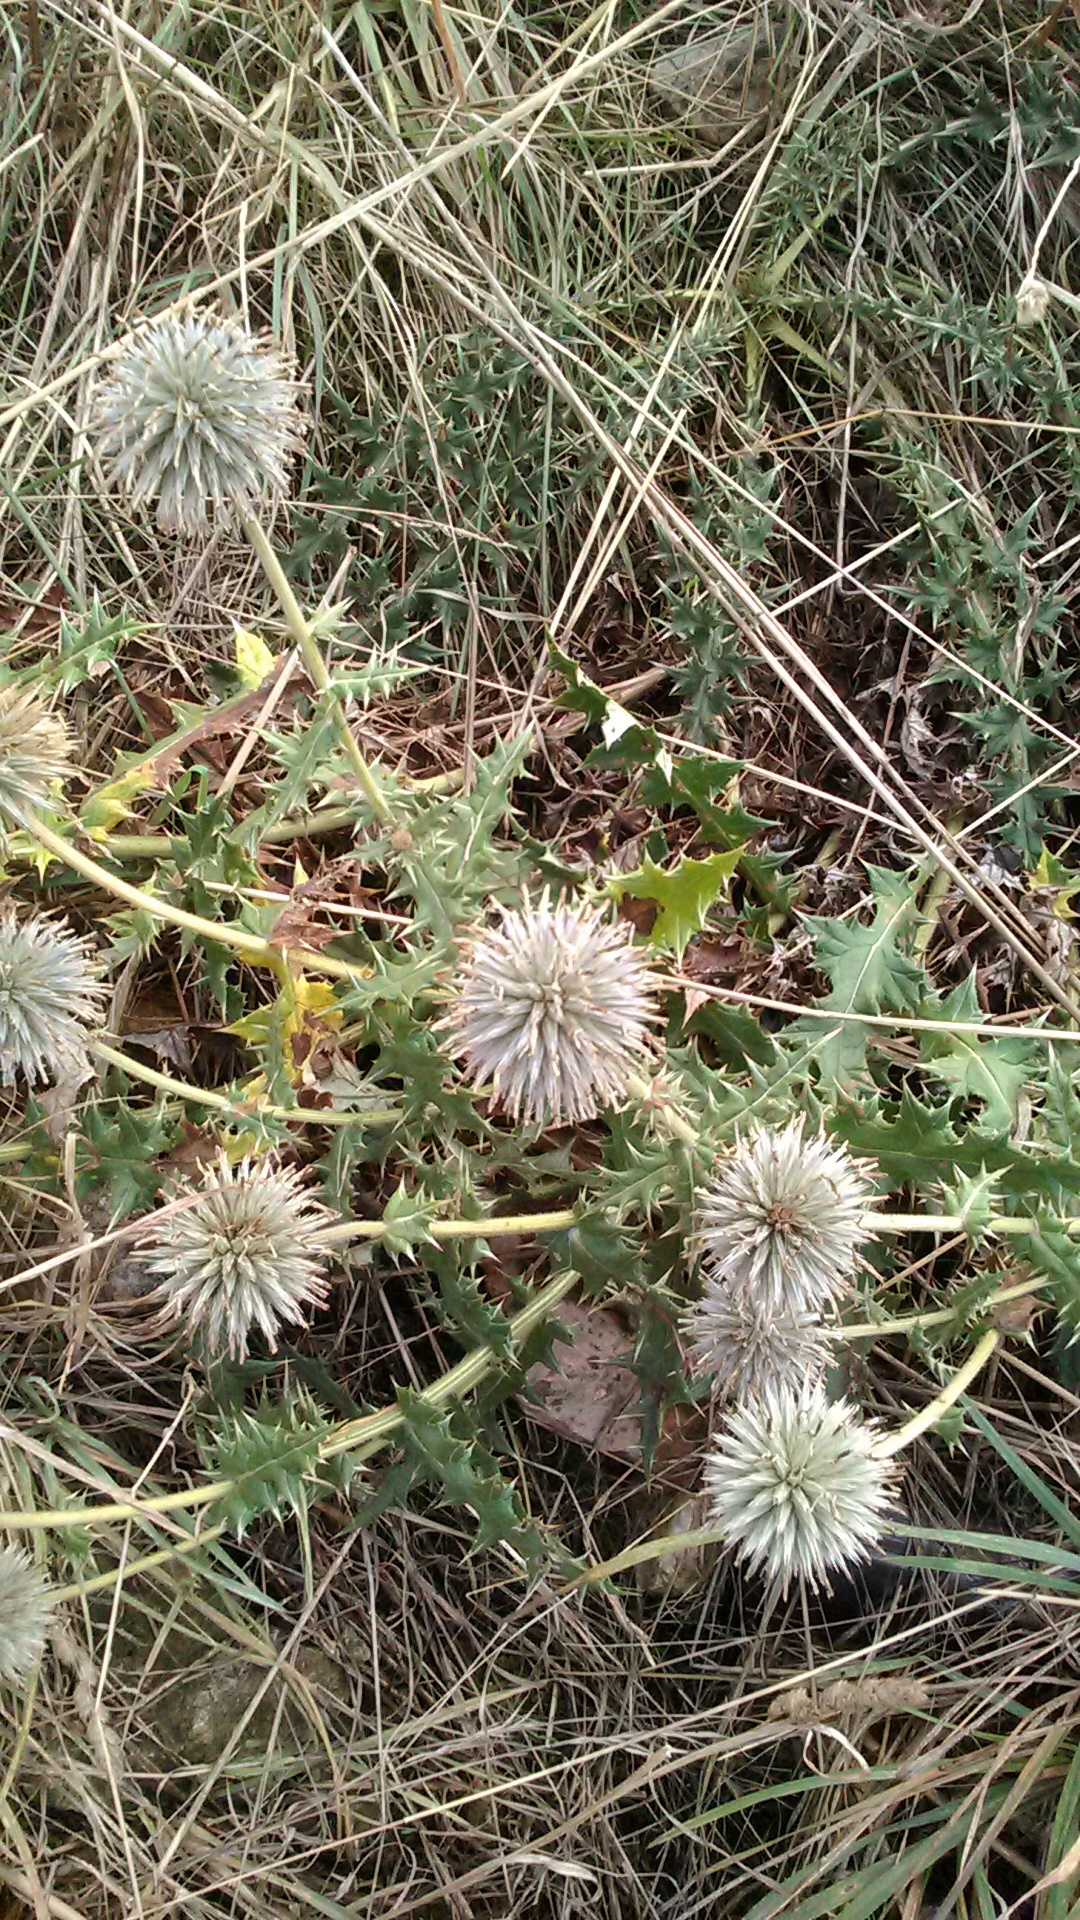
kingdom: Plantae
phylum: Tracheophyta
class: Magnoliopsida
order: Asterales
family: Asteraceae
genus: Echinops
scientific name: Echinops armatus
